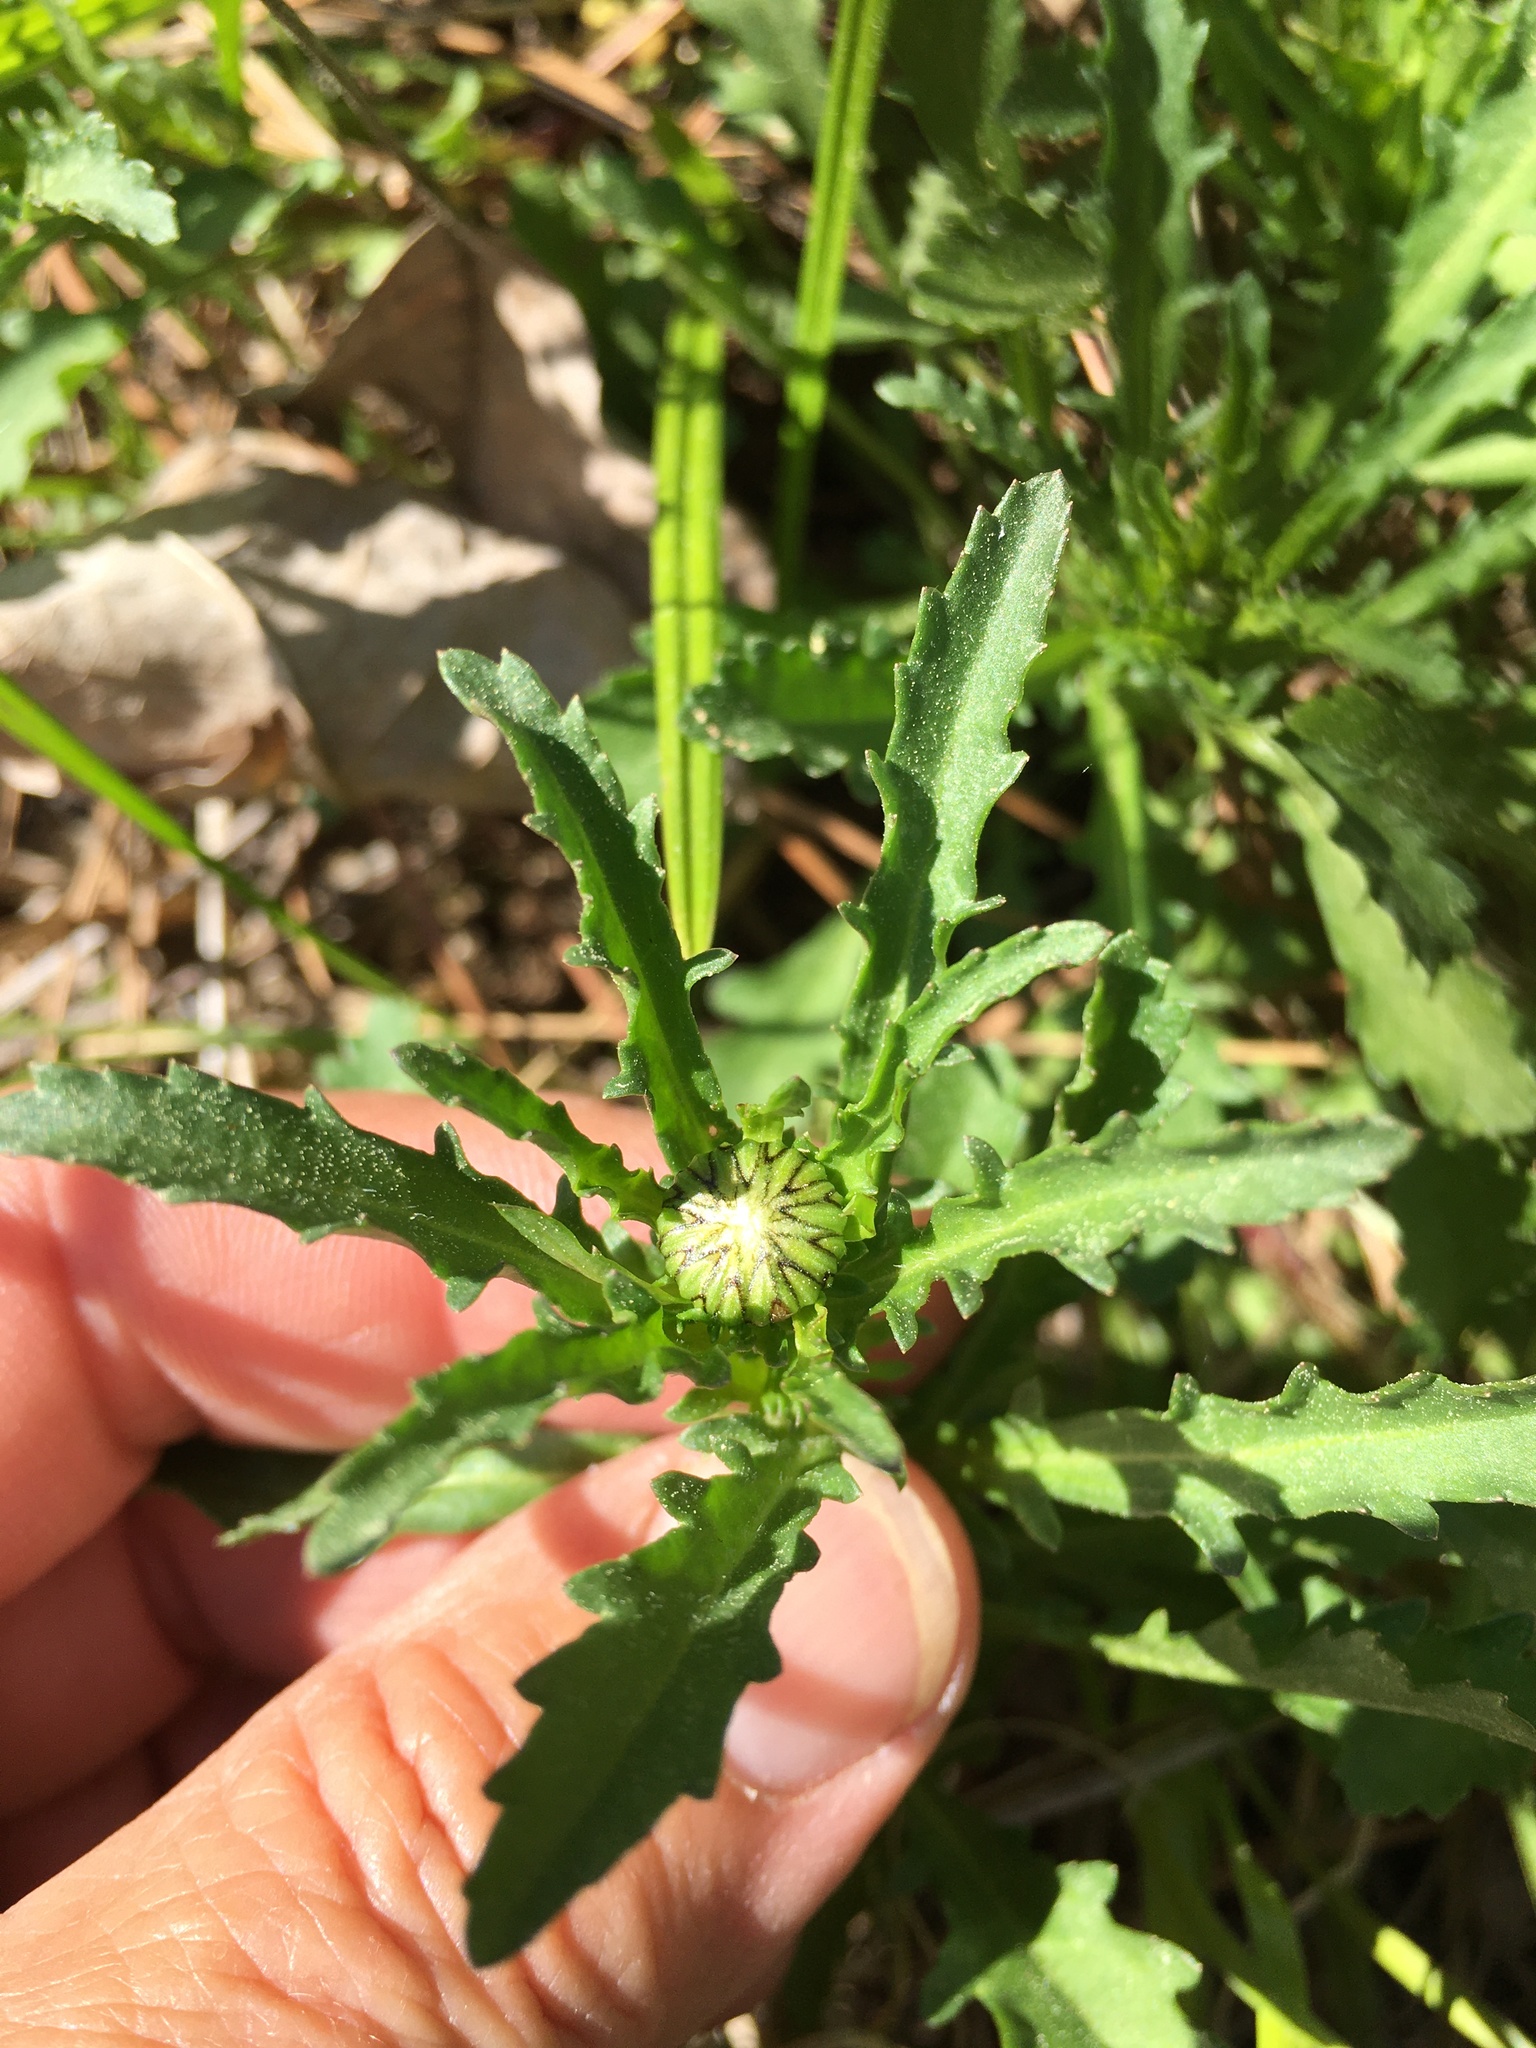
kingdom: Plantae
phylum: Tracheophyta
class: Magnoliopsida
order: Asterales
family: Asteraceae
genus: Leucanthemum
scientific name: Leucanthemum vulgare
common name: Oxeye daisy
